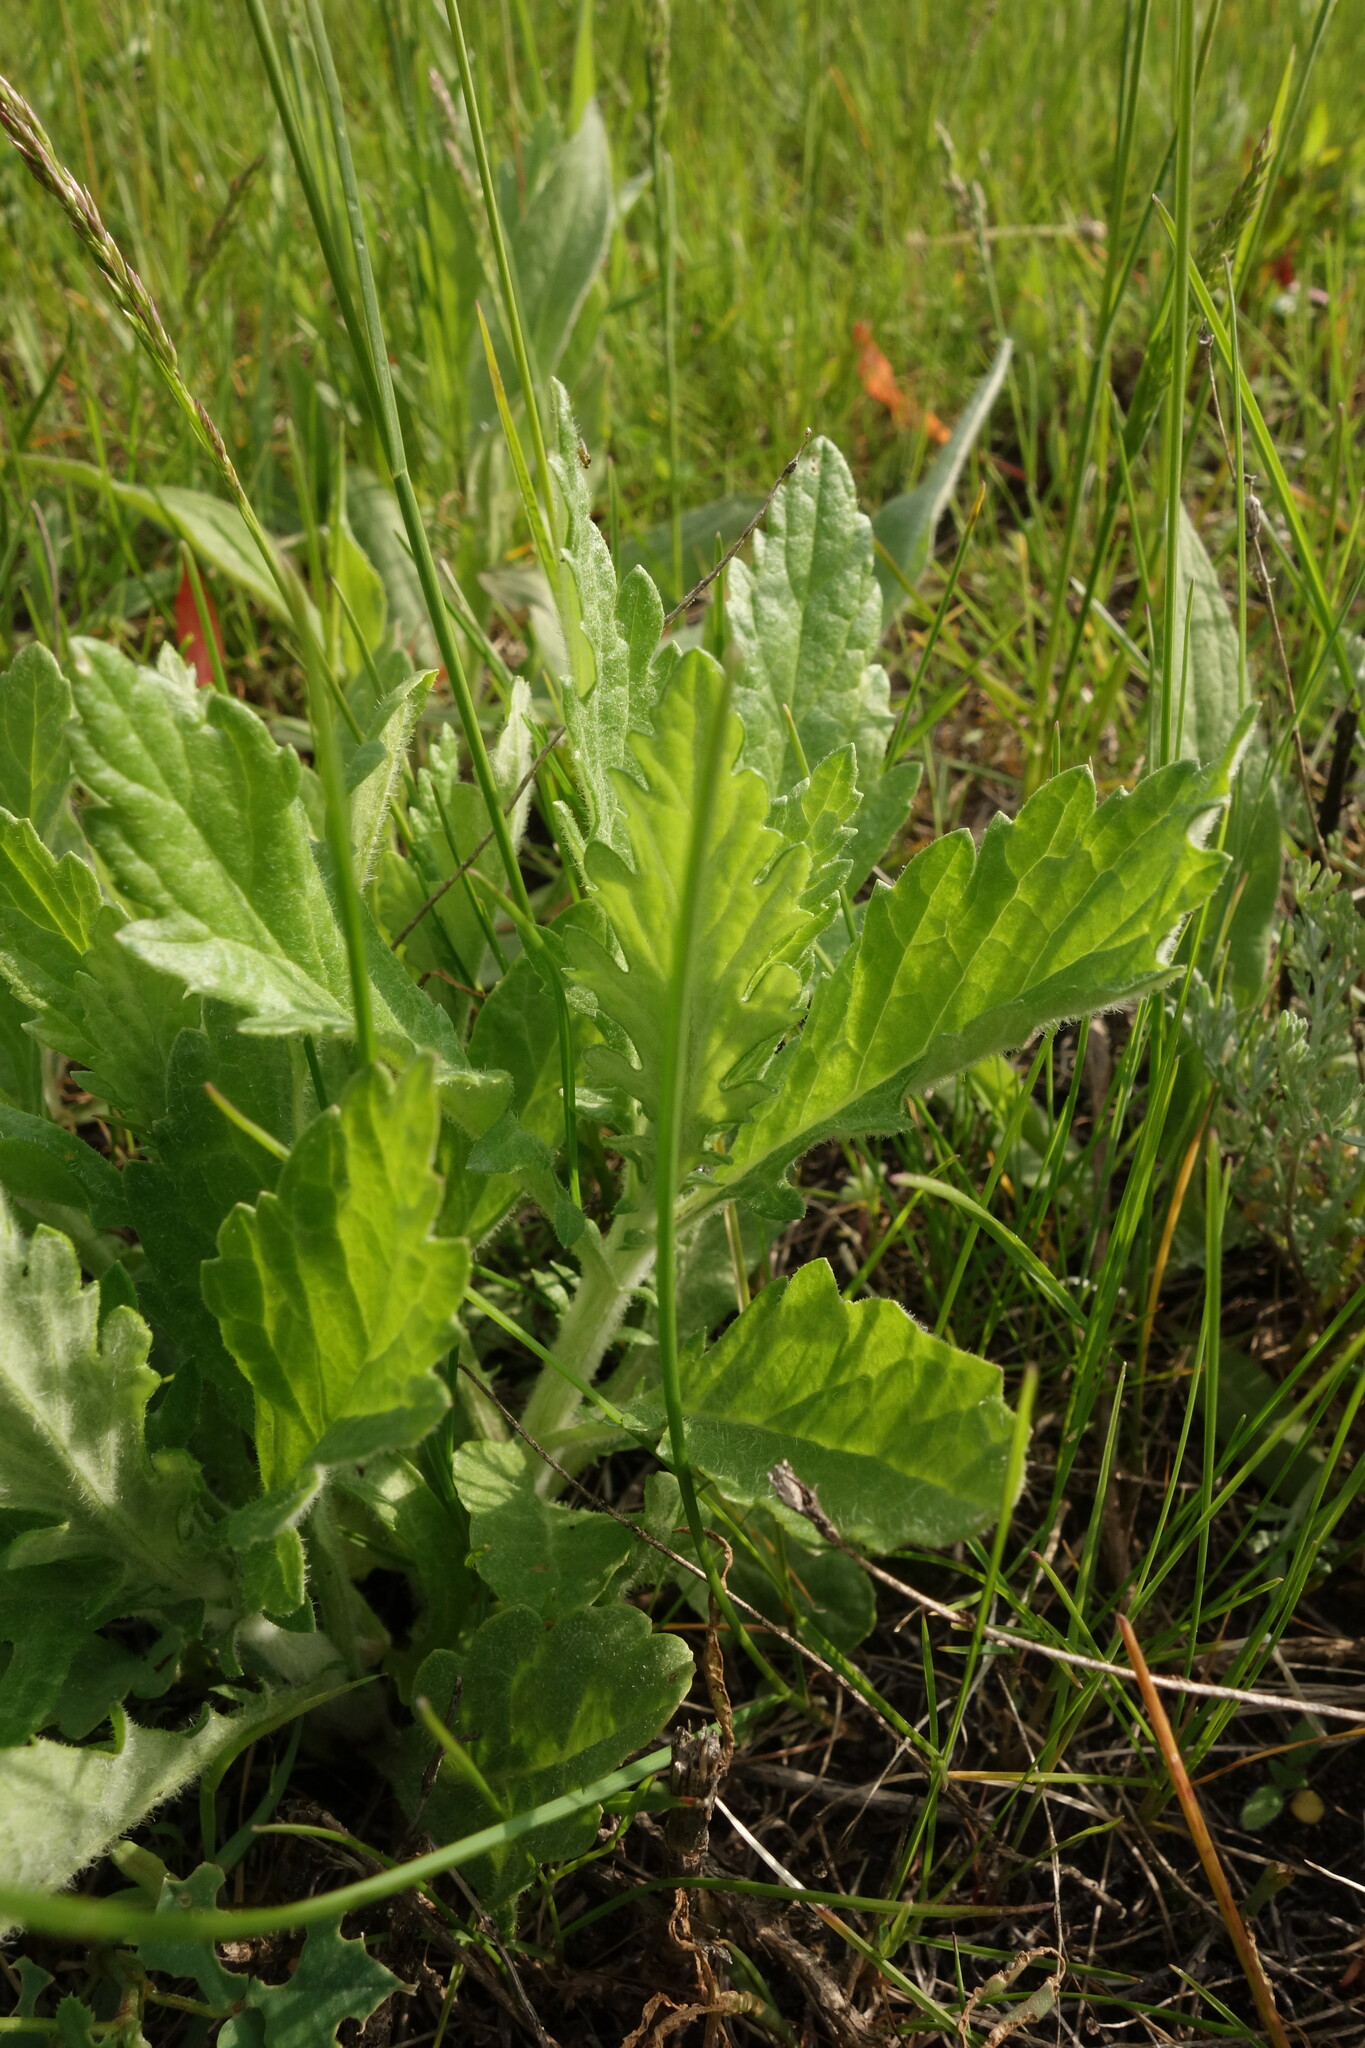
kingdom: Plantae
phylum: Tracheophyta
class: Magnoliopsida
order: Asterales
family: Asteraceae
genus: Jacobaea
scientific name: Jacobaea erucifolia
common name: Hoary ragwort
